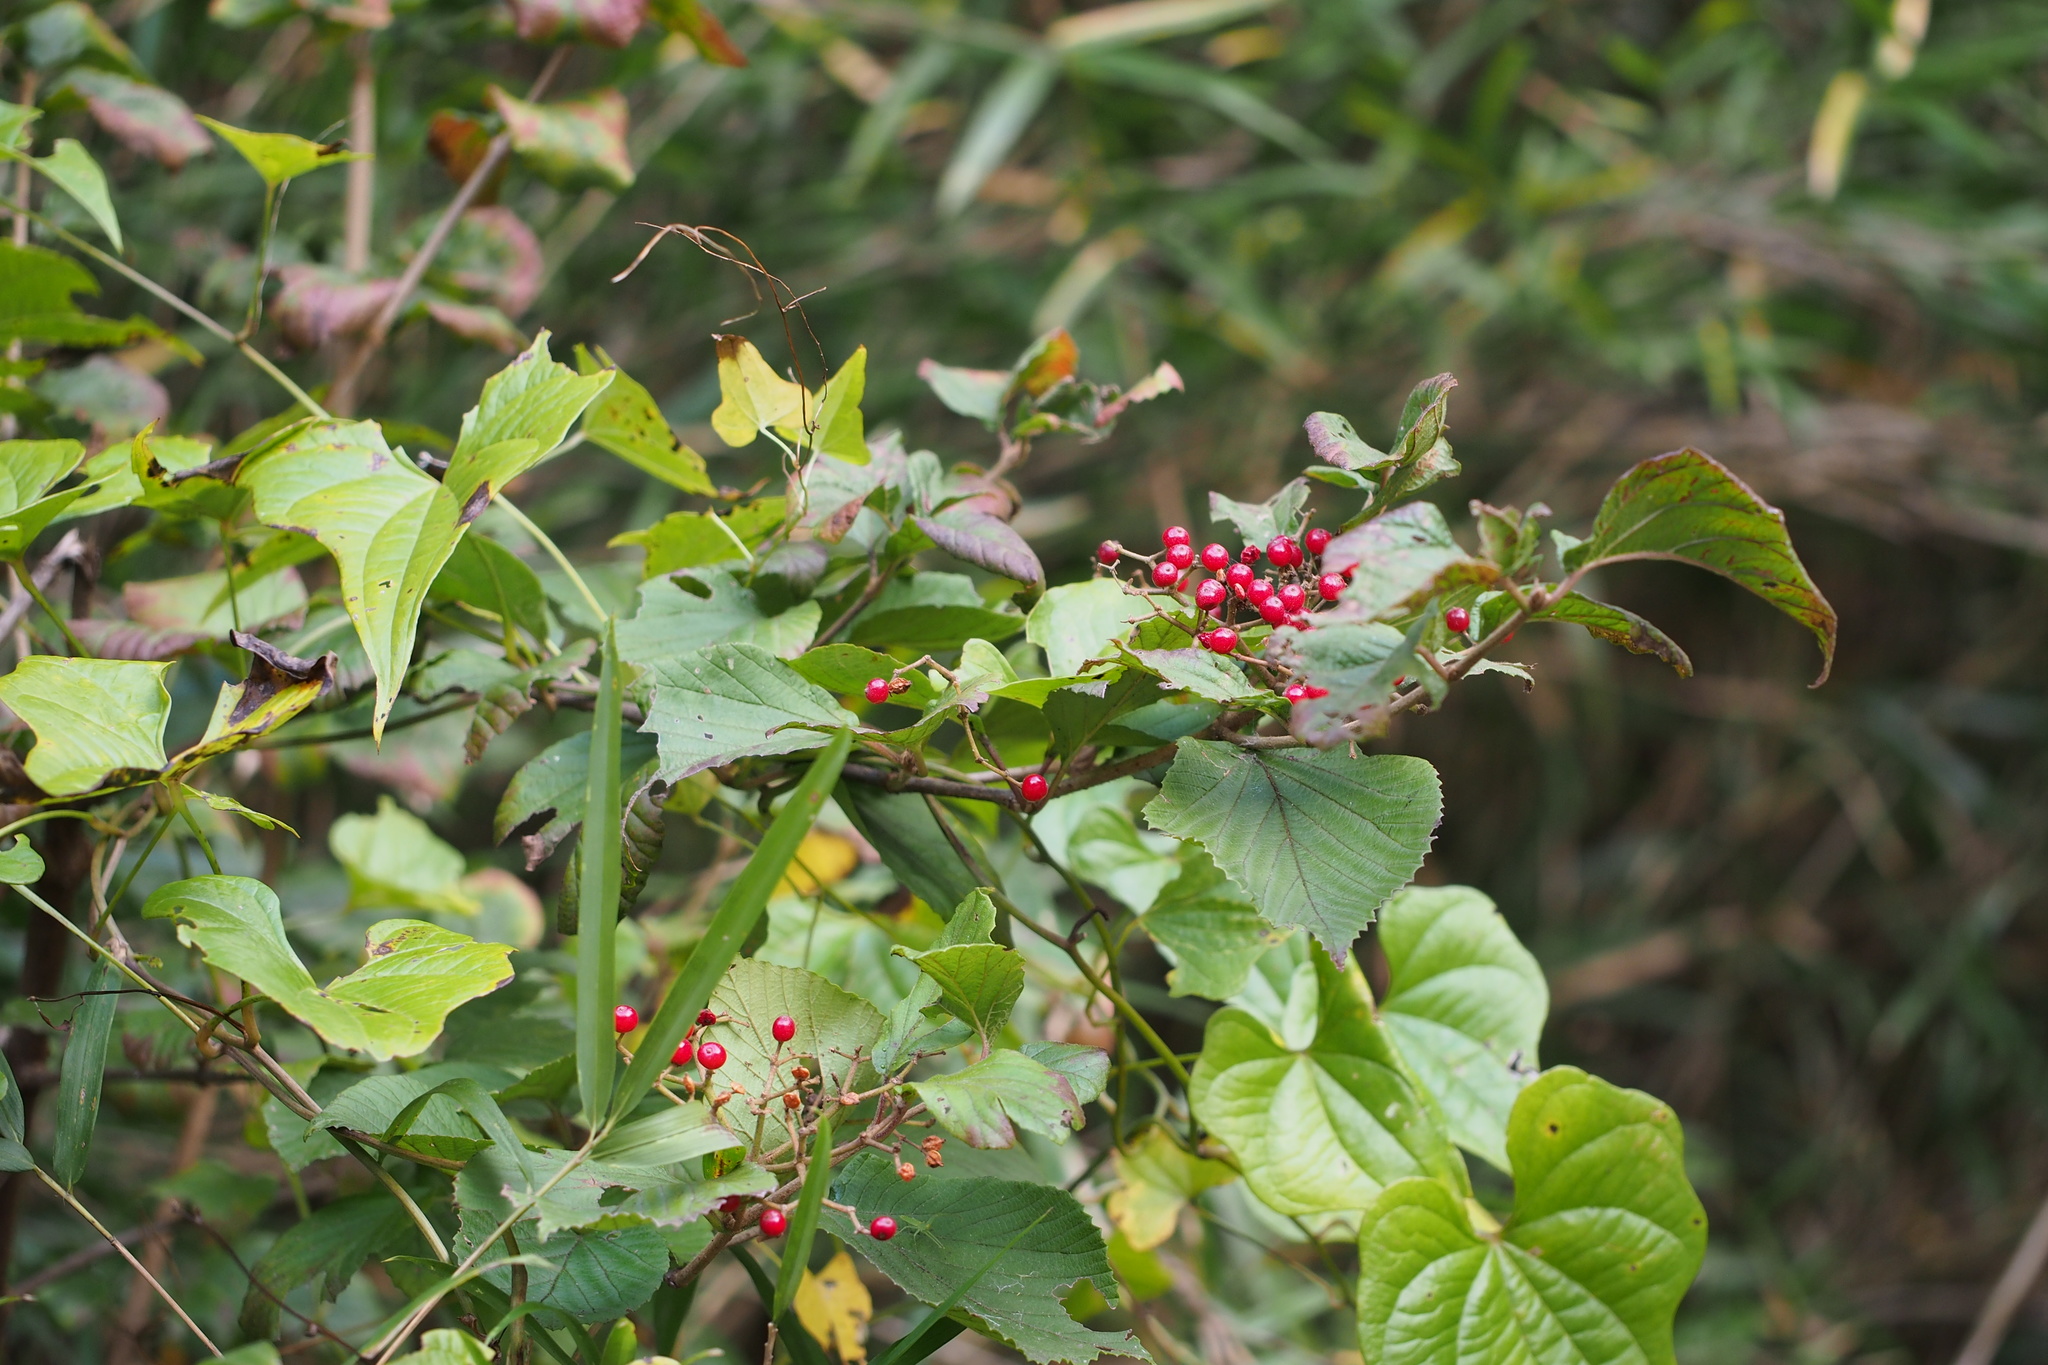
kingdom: Plantae
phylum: Tracheophyta
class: Magnoliopsida
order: Dipsacales
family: Viburnaceae
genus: Viburnum
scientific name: Viburnum dilatatum
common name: Linden arrowwood
